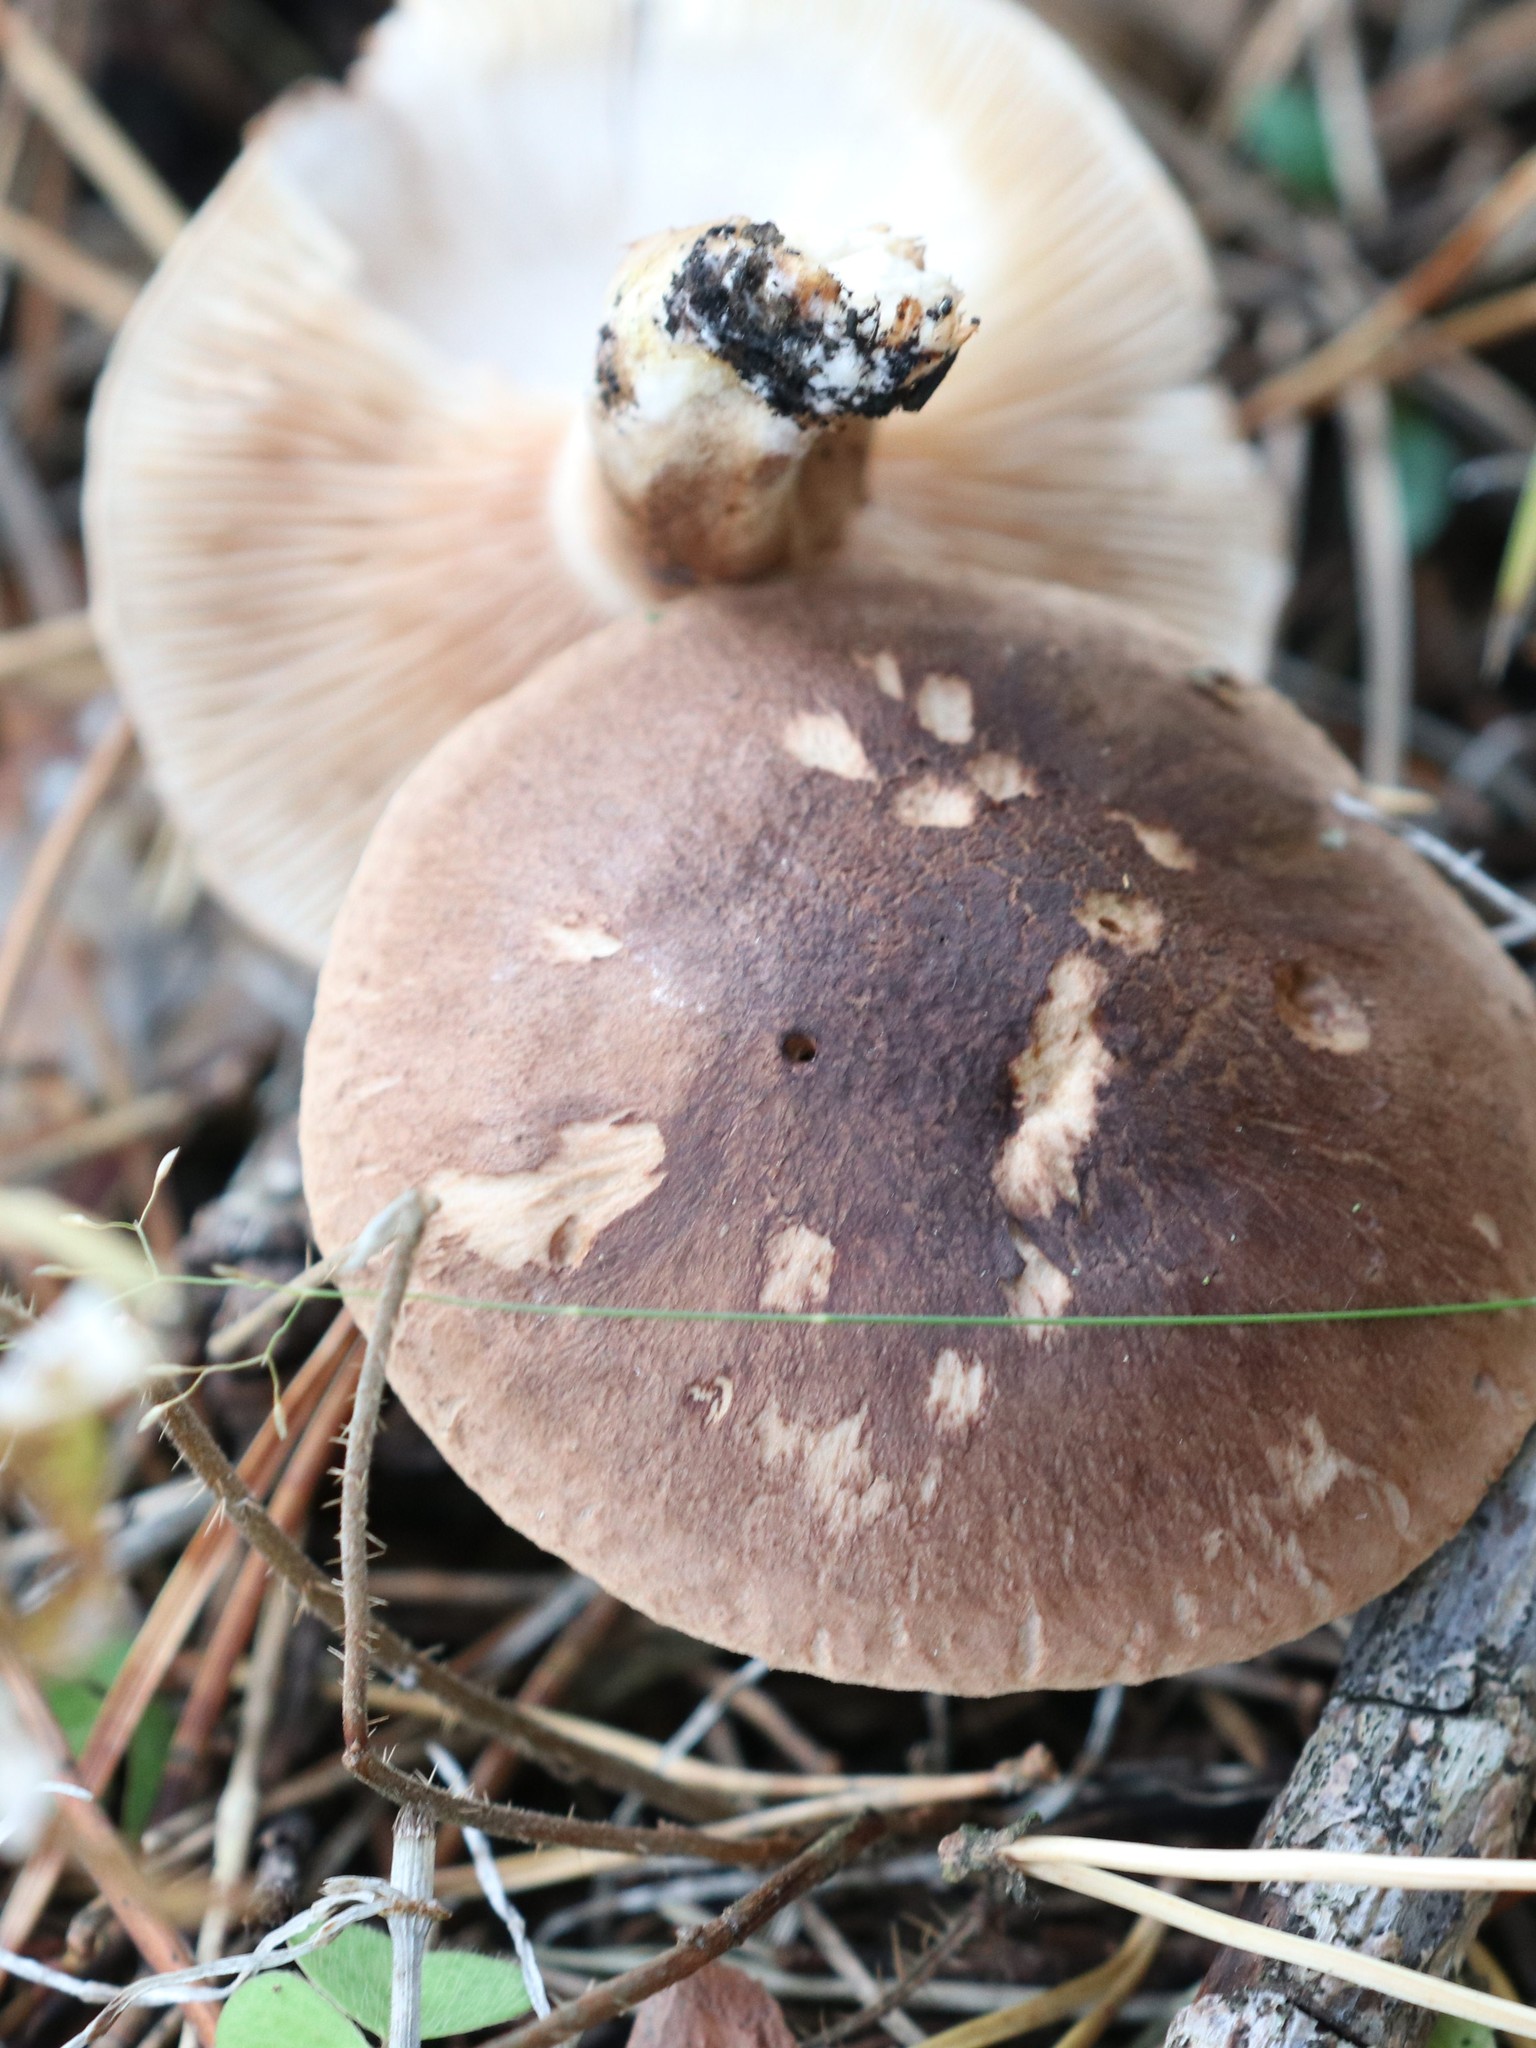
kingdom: Fungi
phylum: Basidiomycota
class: Agaricomycetes
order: Agaricales
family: Tricholomataceae
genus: Tricholoma
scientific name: Tricholoma imbricatum
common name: Matt knight
